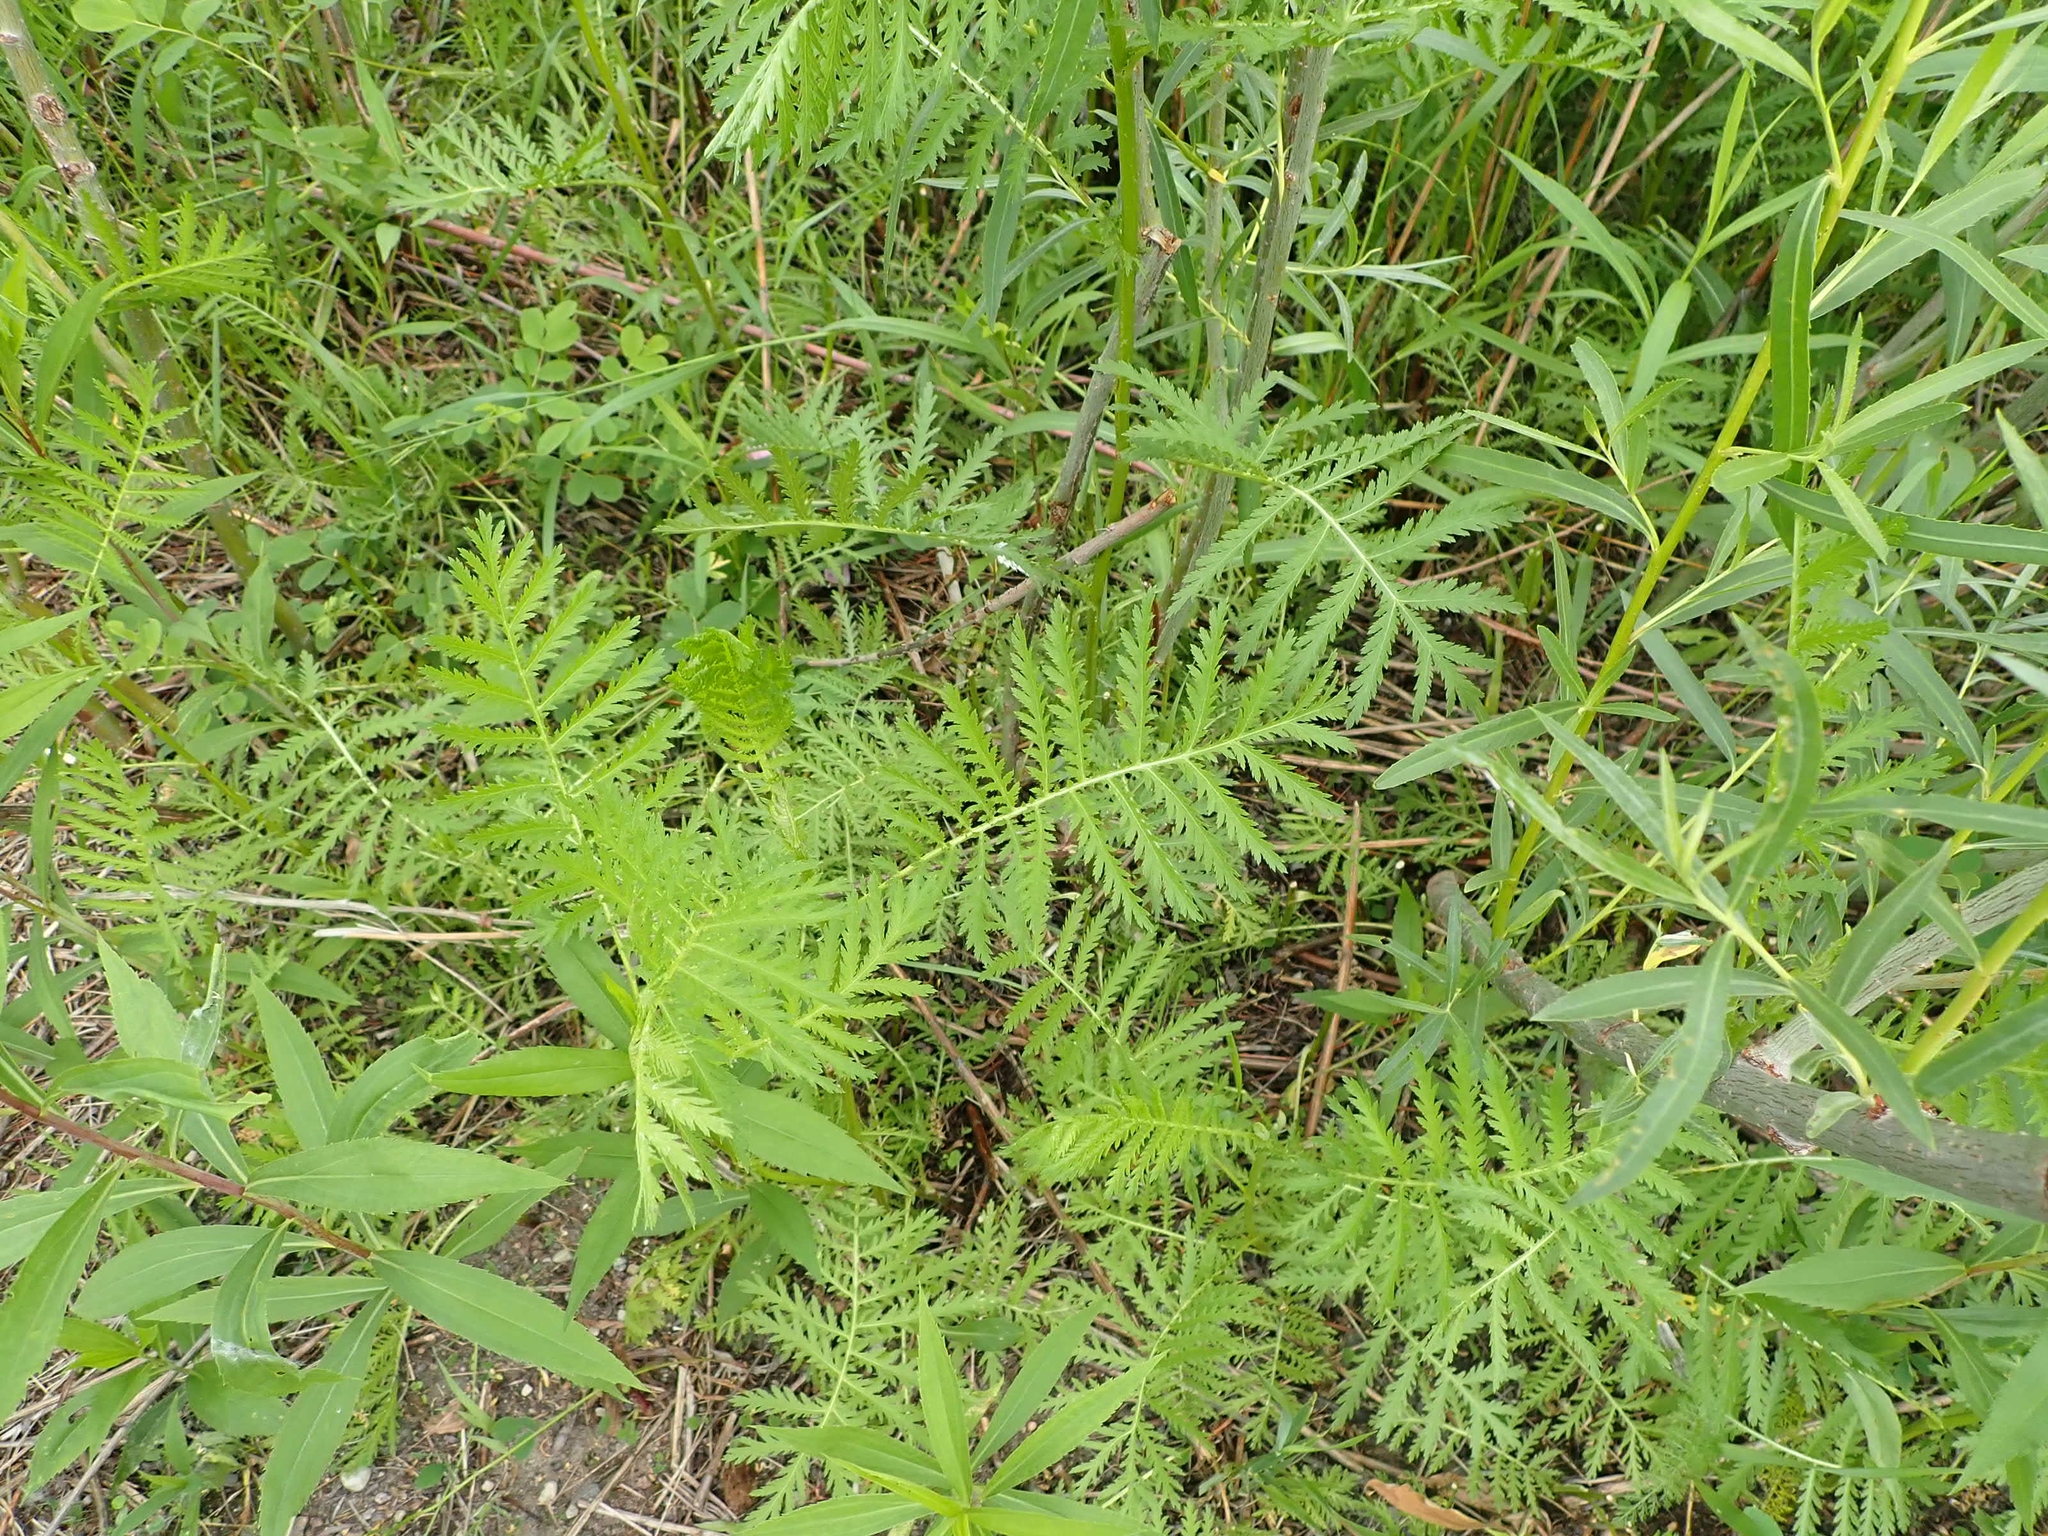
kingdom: Plantae
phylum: Tracheophyta
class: Magnoliopsida
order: Asterales
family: Asteraceae
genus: Tanacetum
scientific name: Tanacetum vulgare
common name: Common tansy
